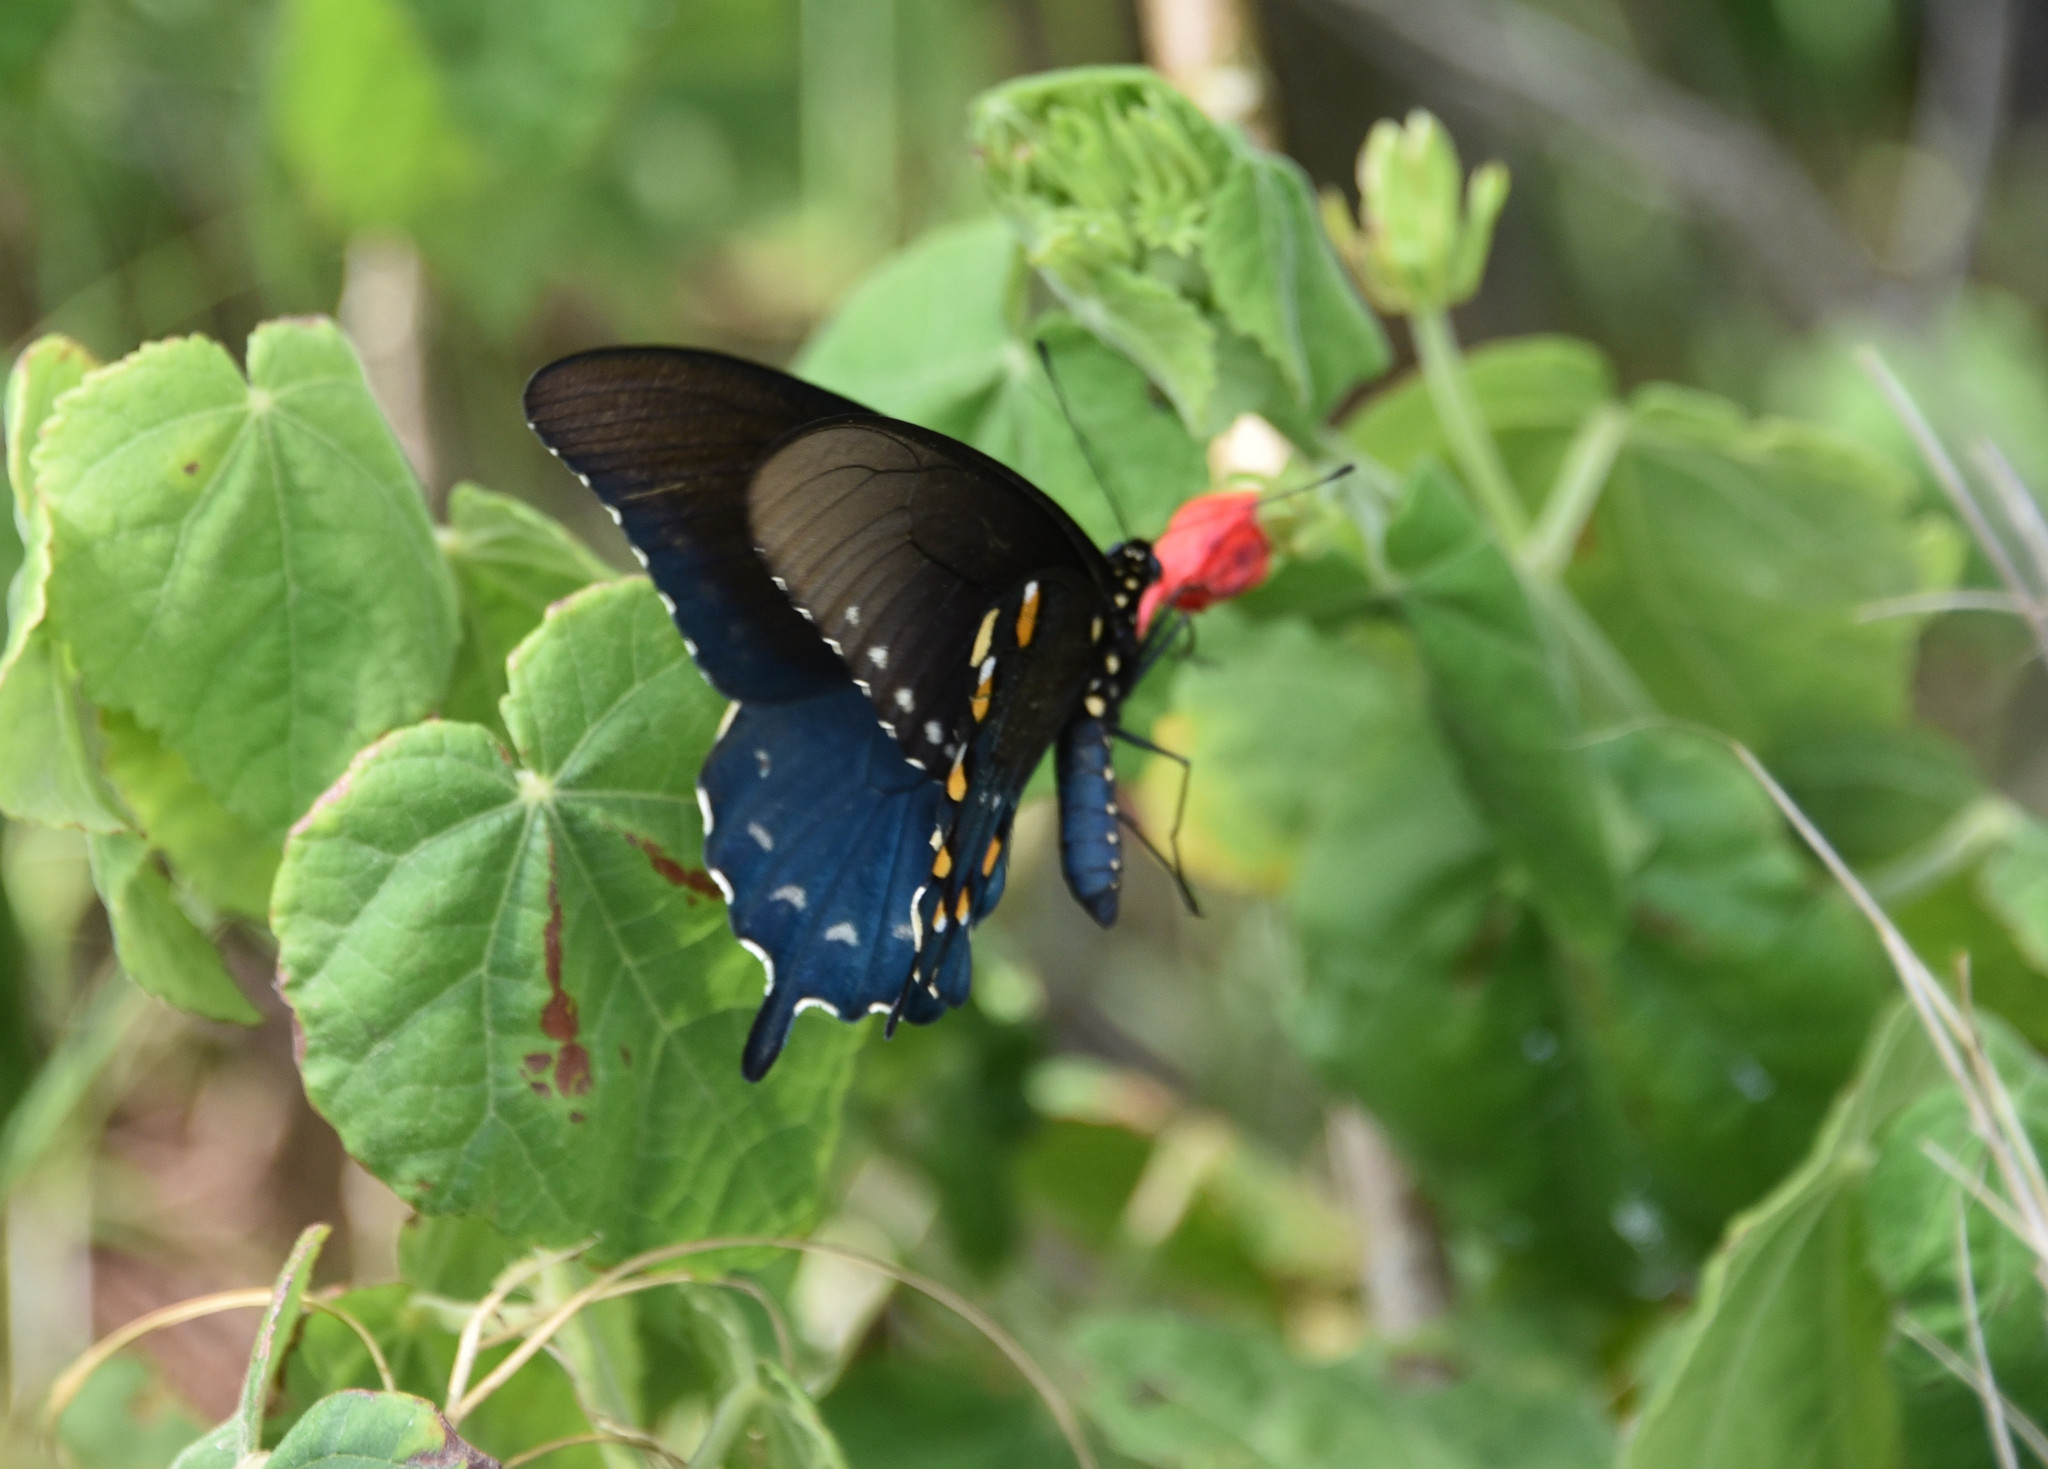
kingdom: Animalia
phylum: Arthropoda
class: Insecta
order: Lepidoptera
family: Papilionidae
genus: Battus
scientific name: Battus philenor
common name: Pipevine swallowtail
